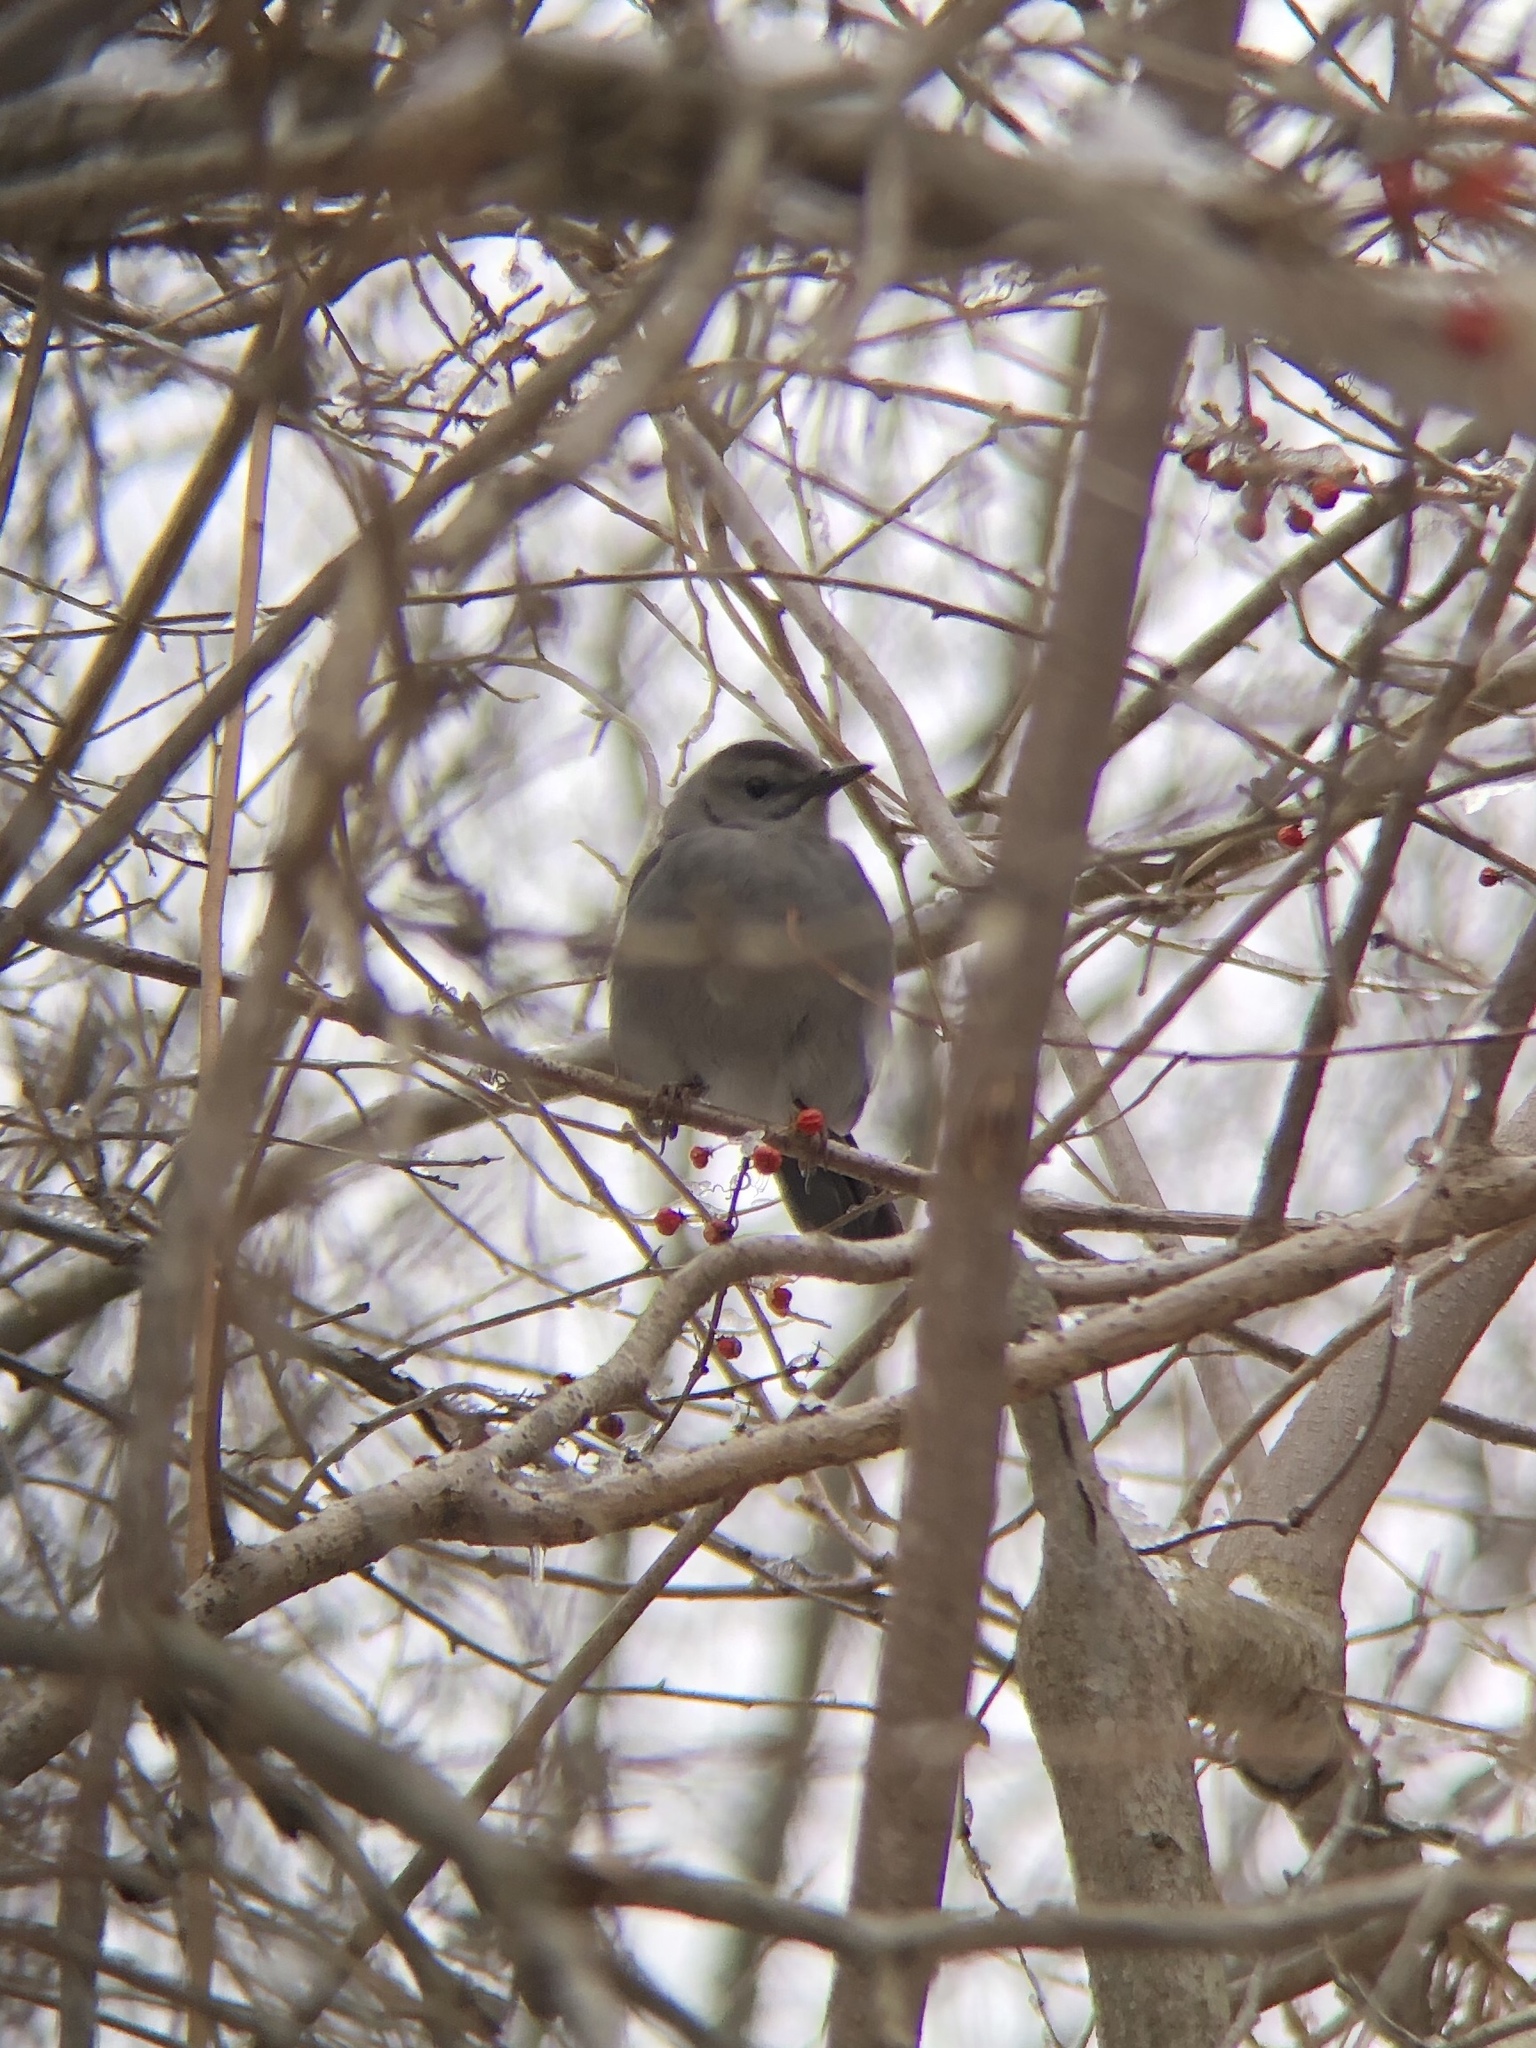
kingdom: Animalia
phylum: Chordata
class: Aves
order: Passeriformes
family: Mimidae
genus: Dumetella
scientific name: Dumetella carolinensis
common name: Gray catbird
